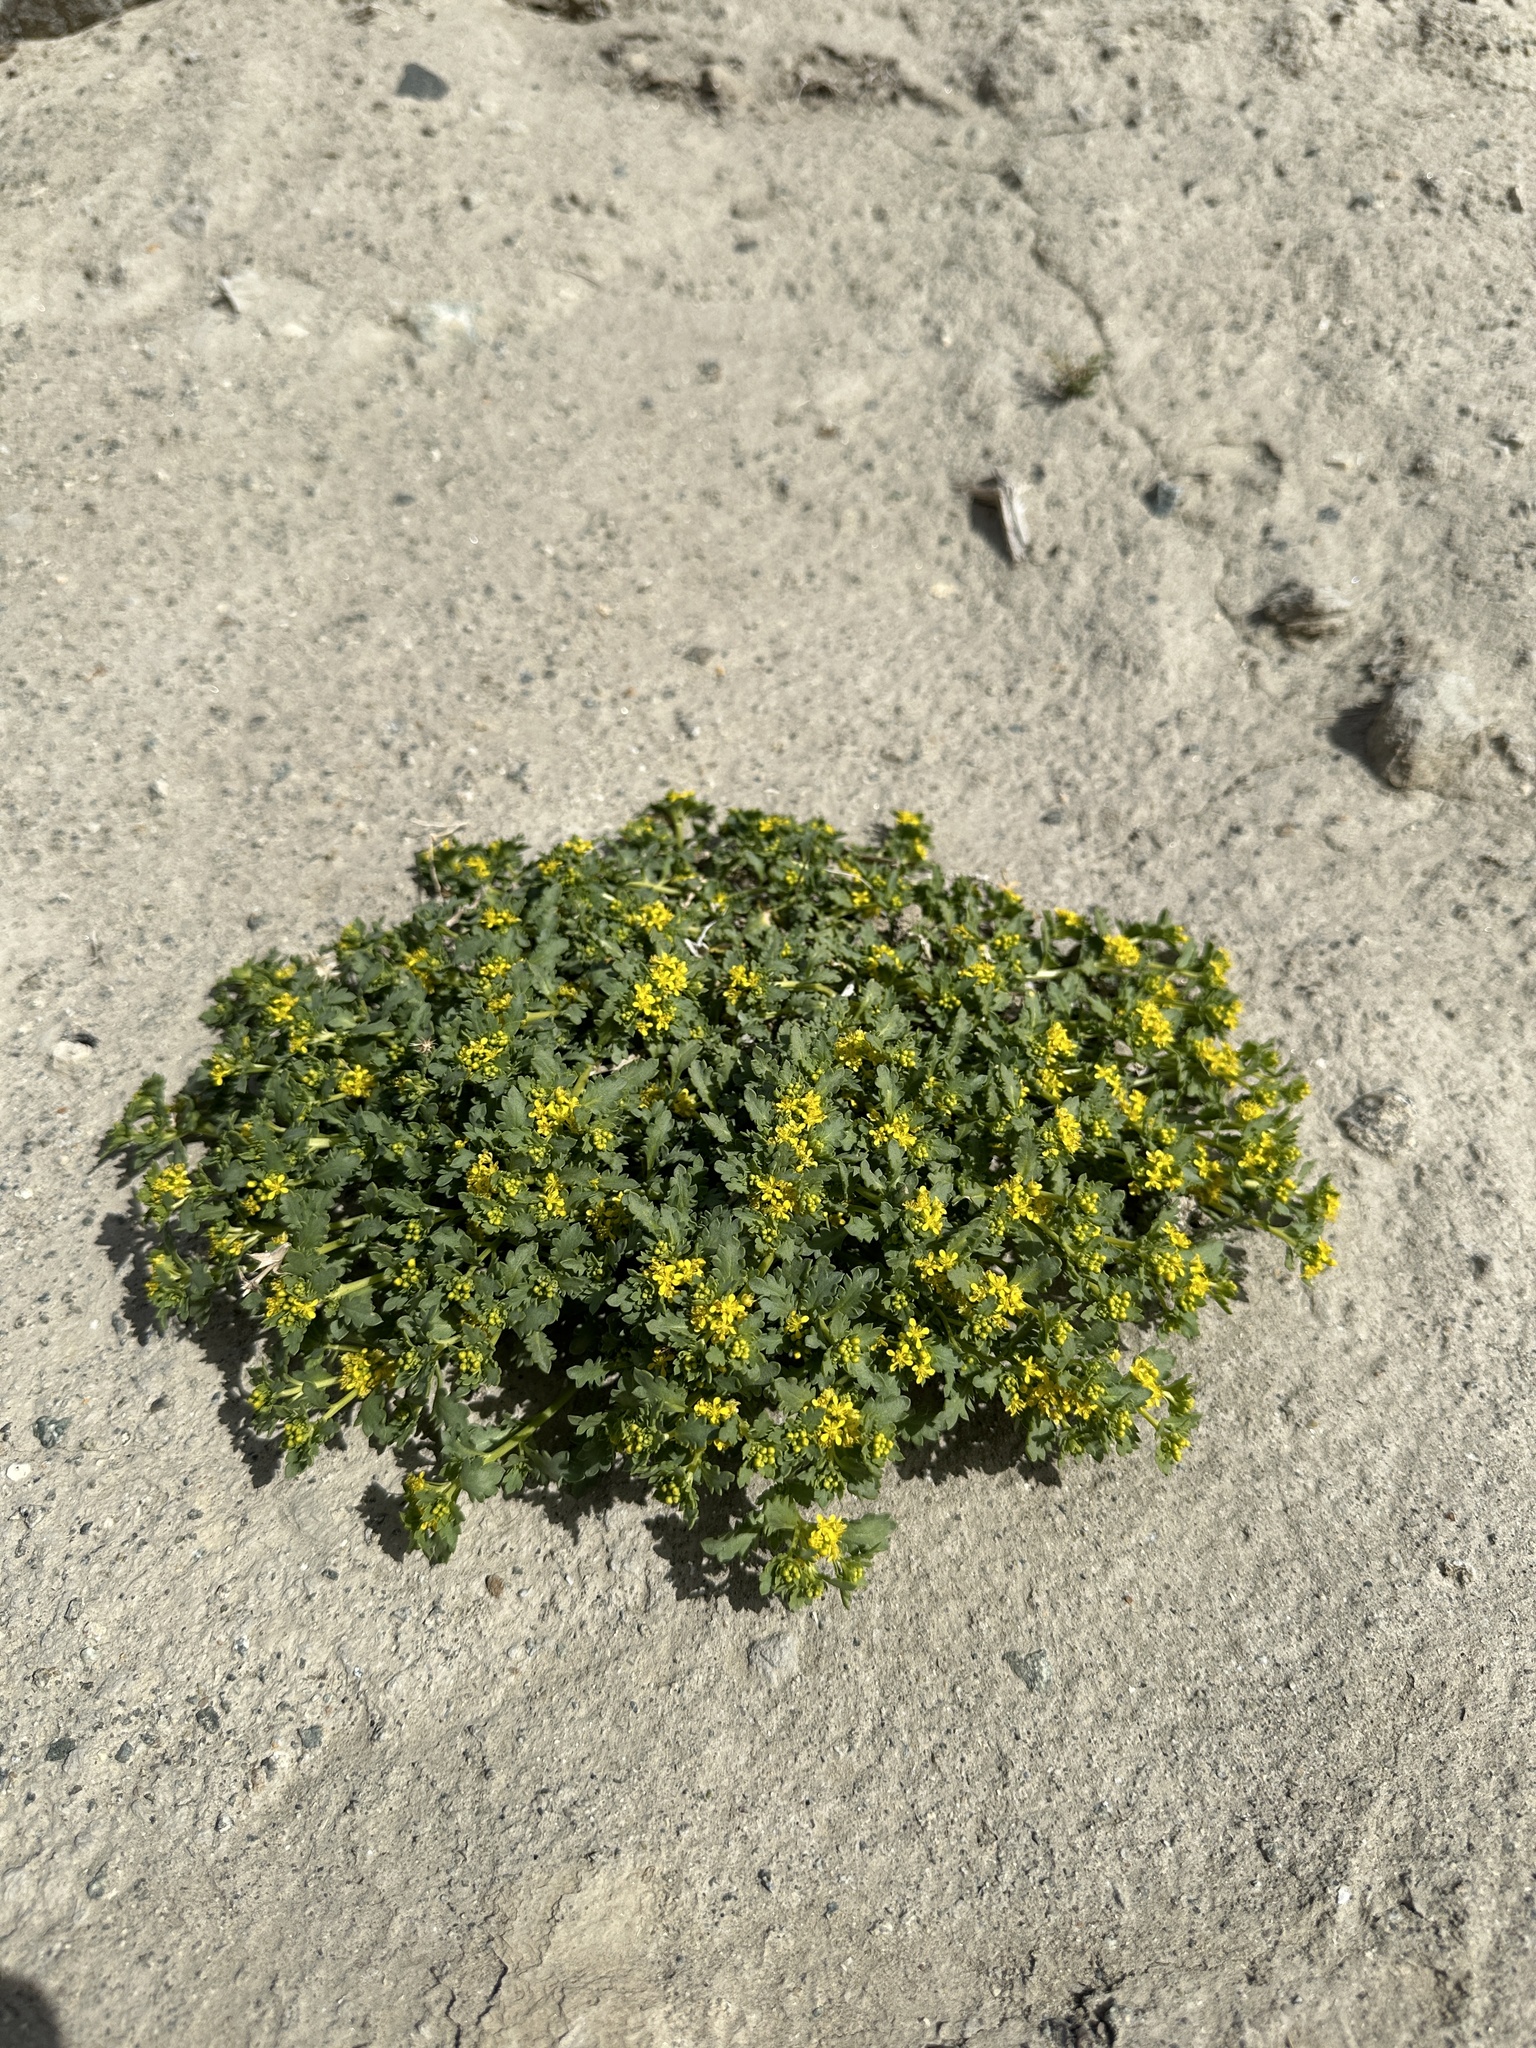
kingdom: Plantae
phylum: Tracheophyta
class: Magnoliopsida
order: Brassicales
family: Brassicaceae
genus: Lepidium
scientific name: Lepidium flavum
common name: Yellow pepperwort
